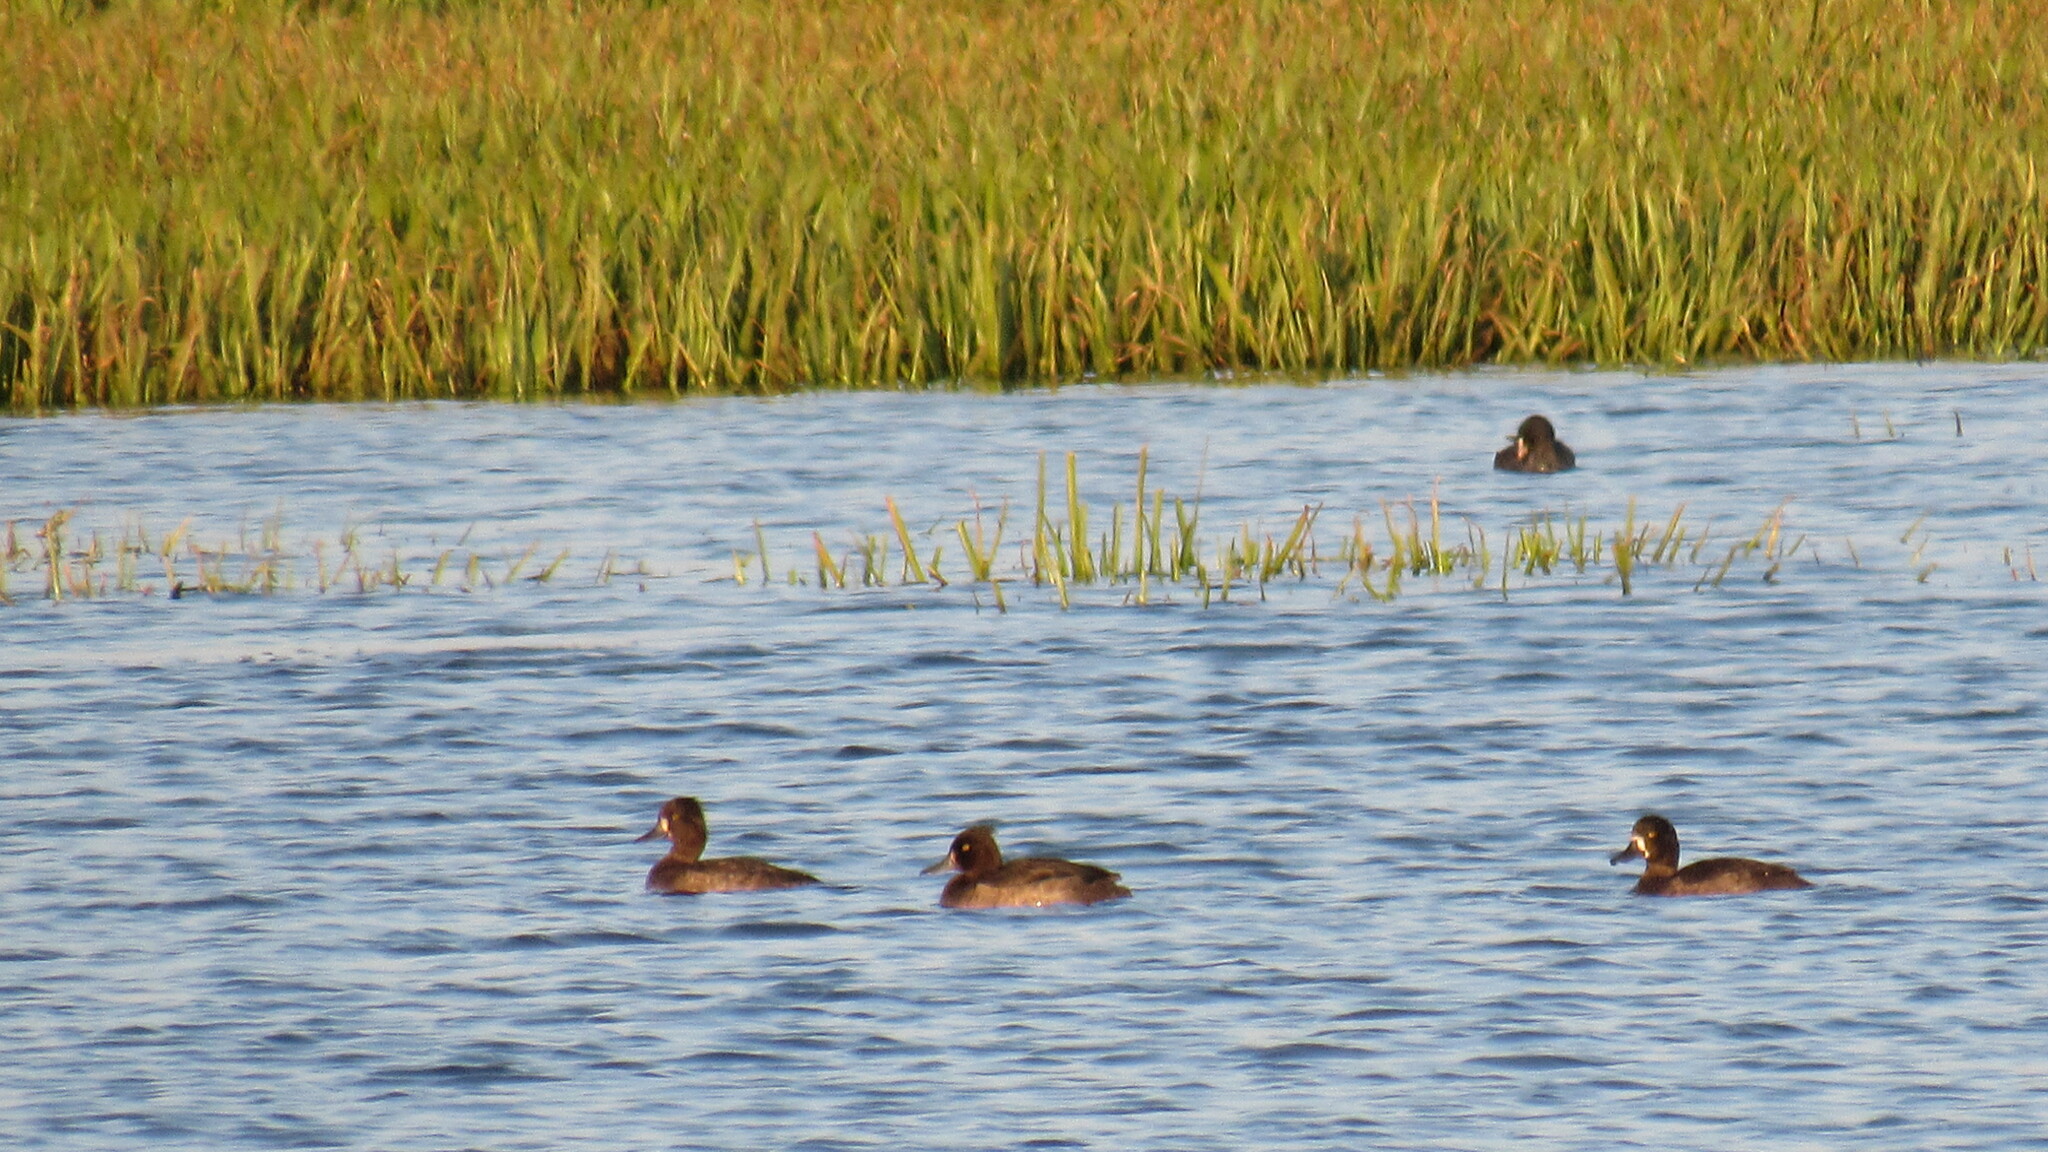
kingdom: Animalia
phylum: Chordata
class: Aves
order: Anseriformes
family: Anatidae
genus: Aythya
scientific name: Aythya fuligula
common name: Tufted duck
